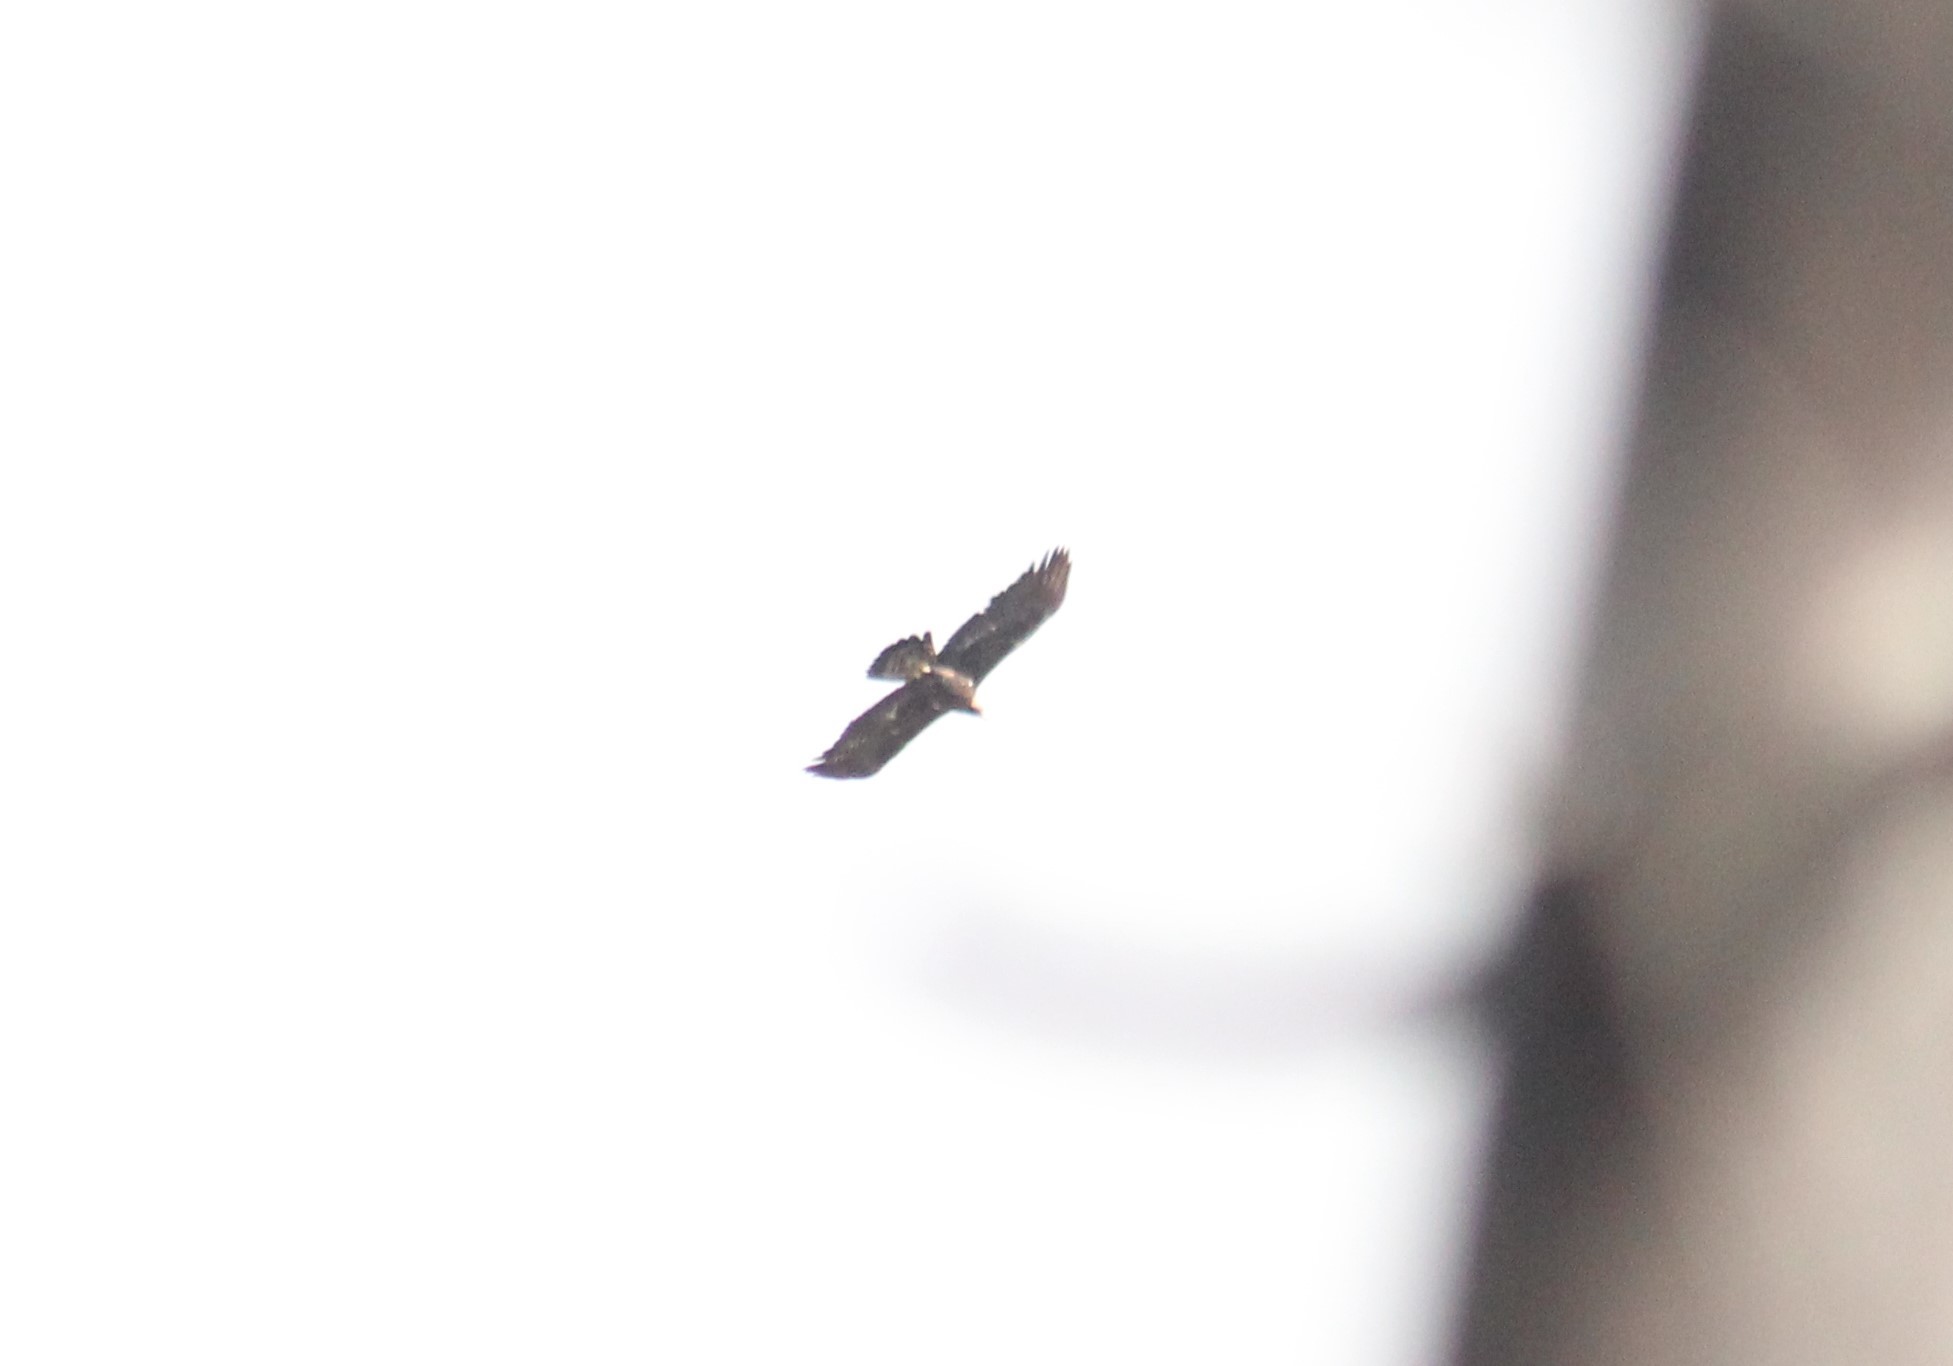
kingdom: Animalia
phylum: Chordata
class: Aves
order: Accipitriformes
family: Accipitridae
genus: Aquila
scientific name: Aquila chrysaetos
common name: Golden eagle
